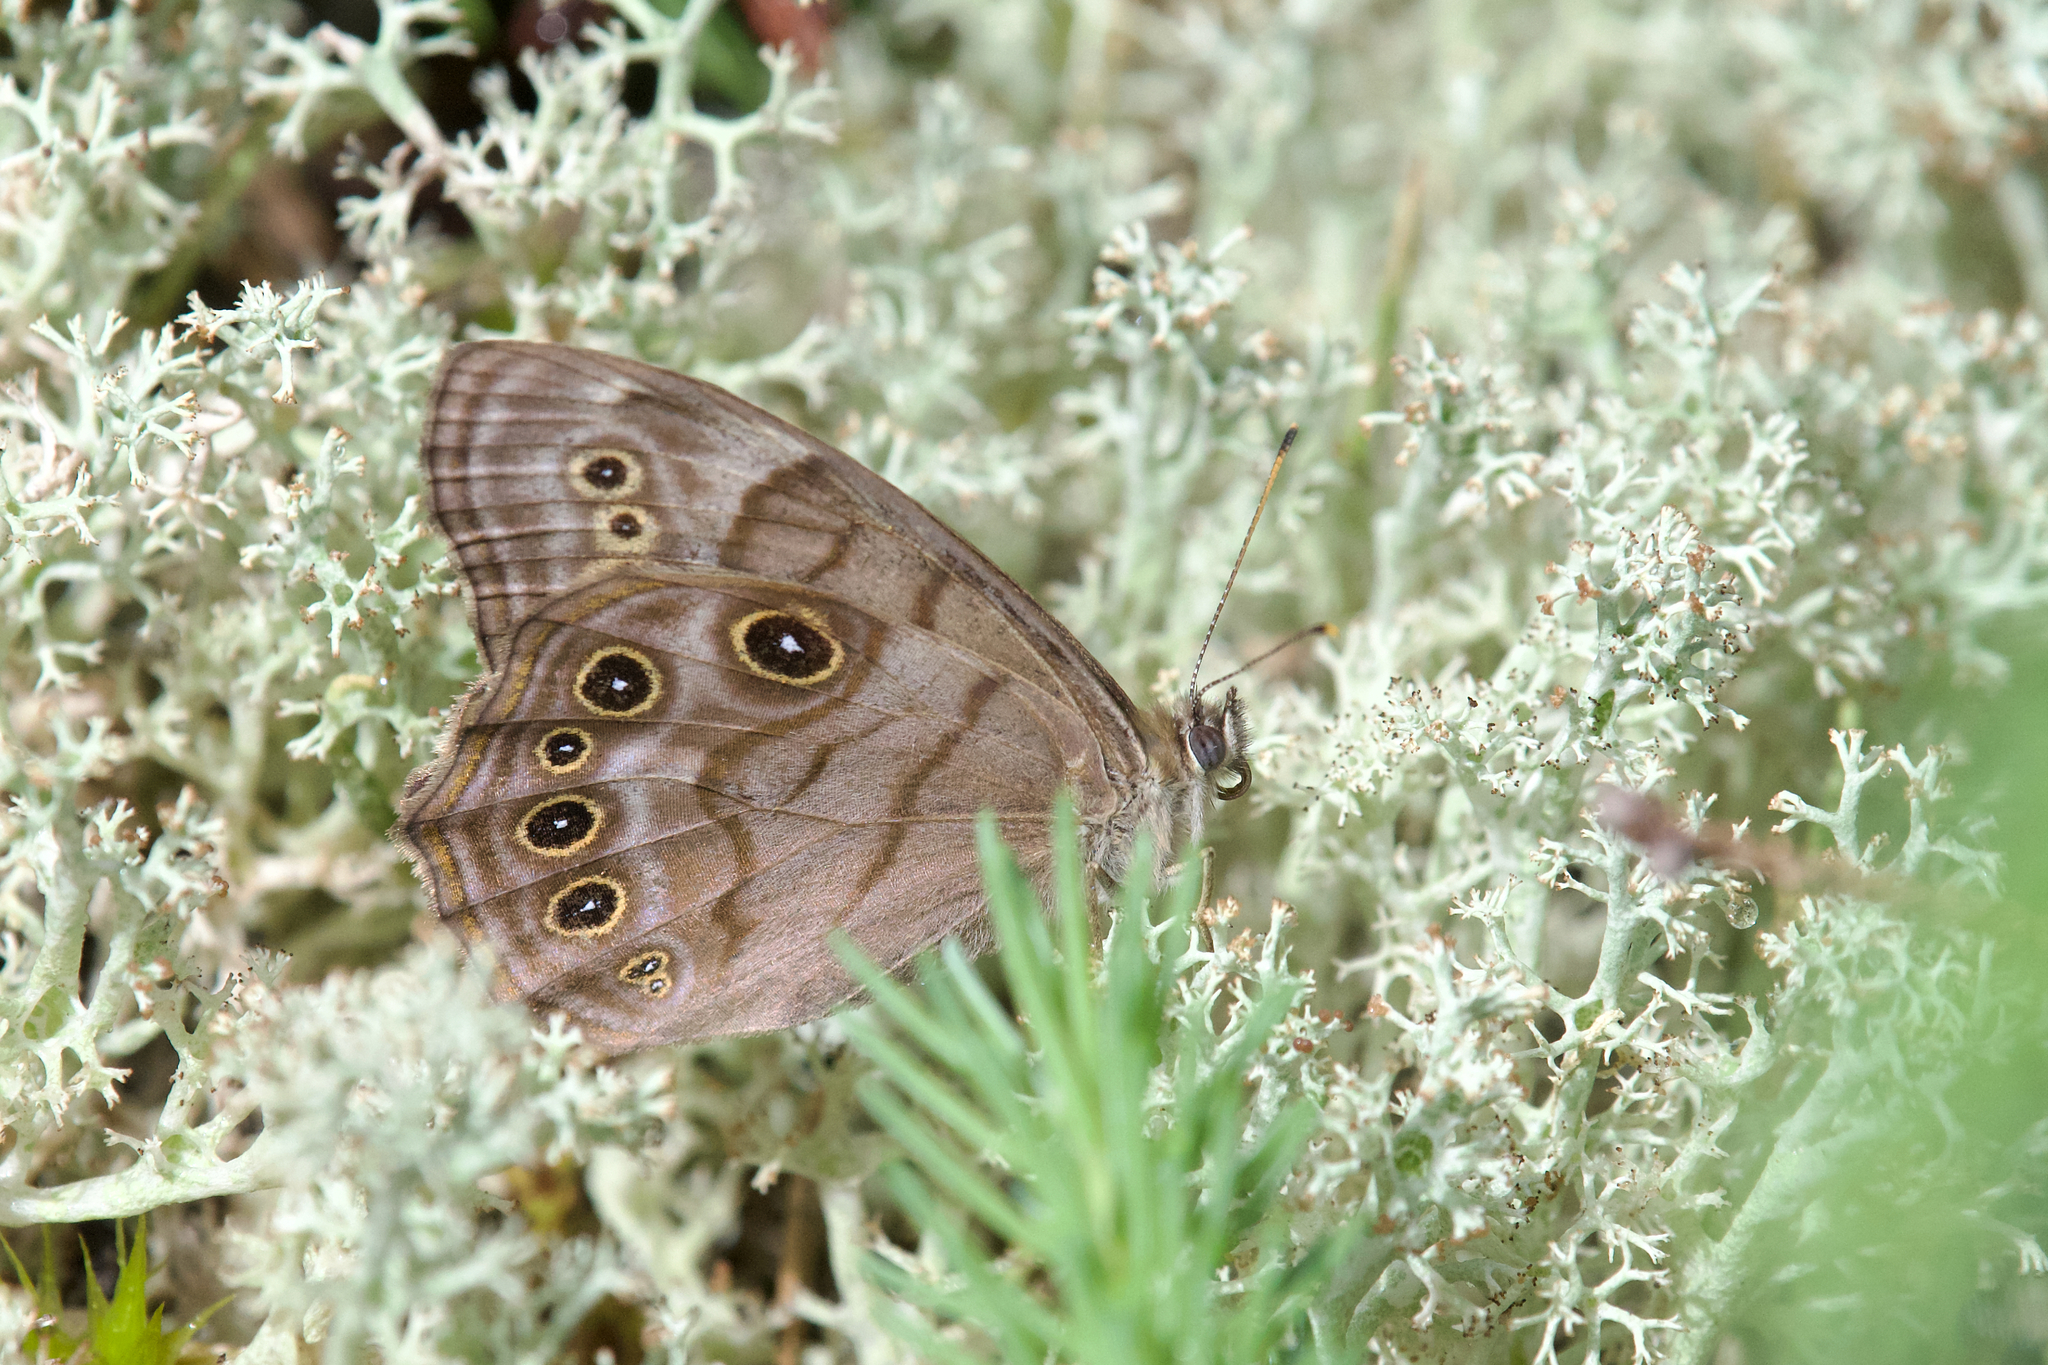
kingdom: Animalia
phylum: Arthropoda
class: Insecta
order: Lepidoptera
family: Nymphalidae
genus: Lethe
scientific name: Lethe anthedon
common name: Northern pearly-eye
